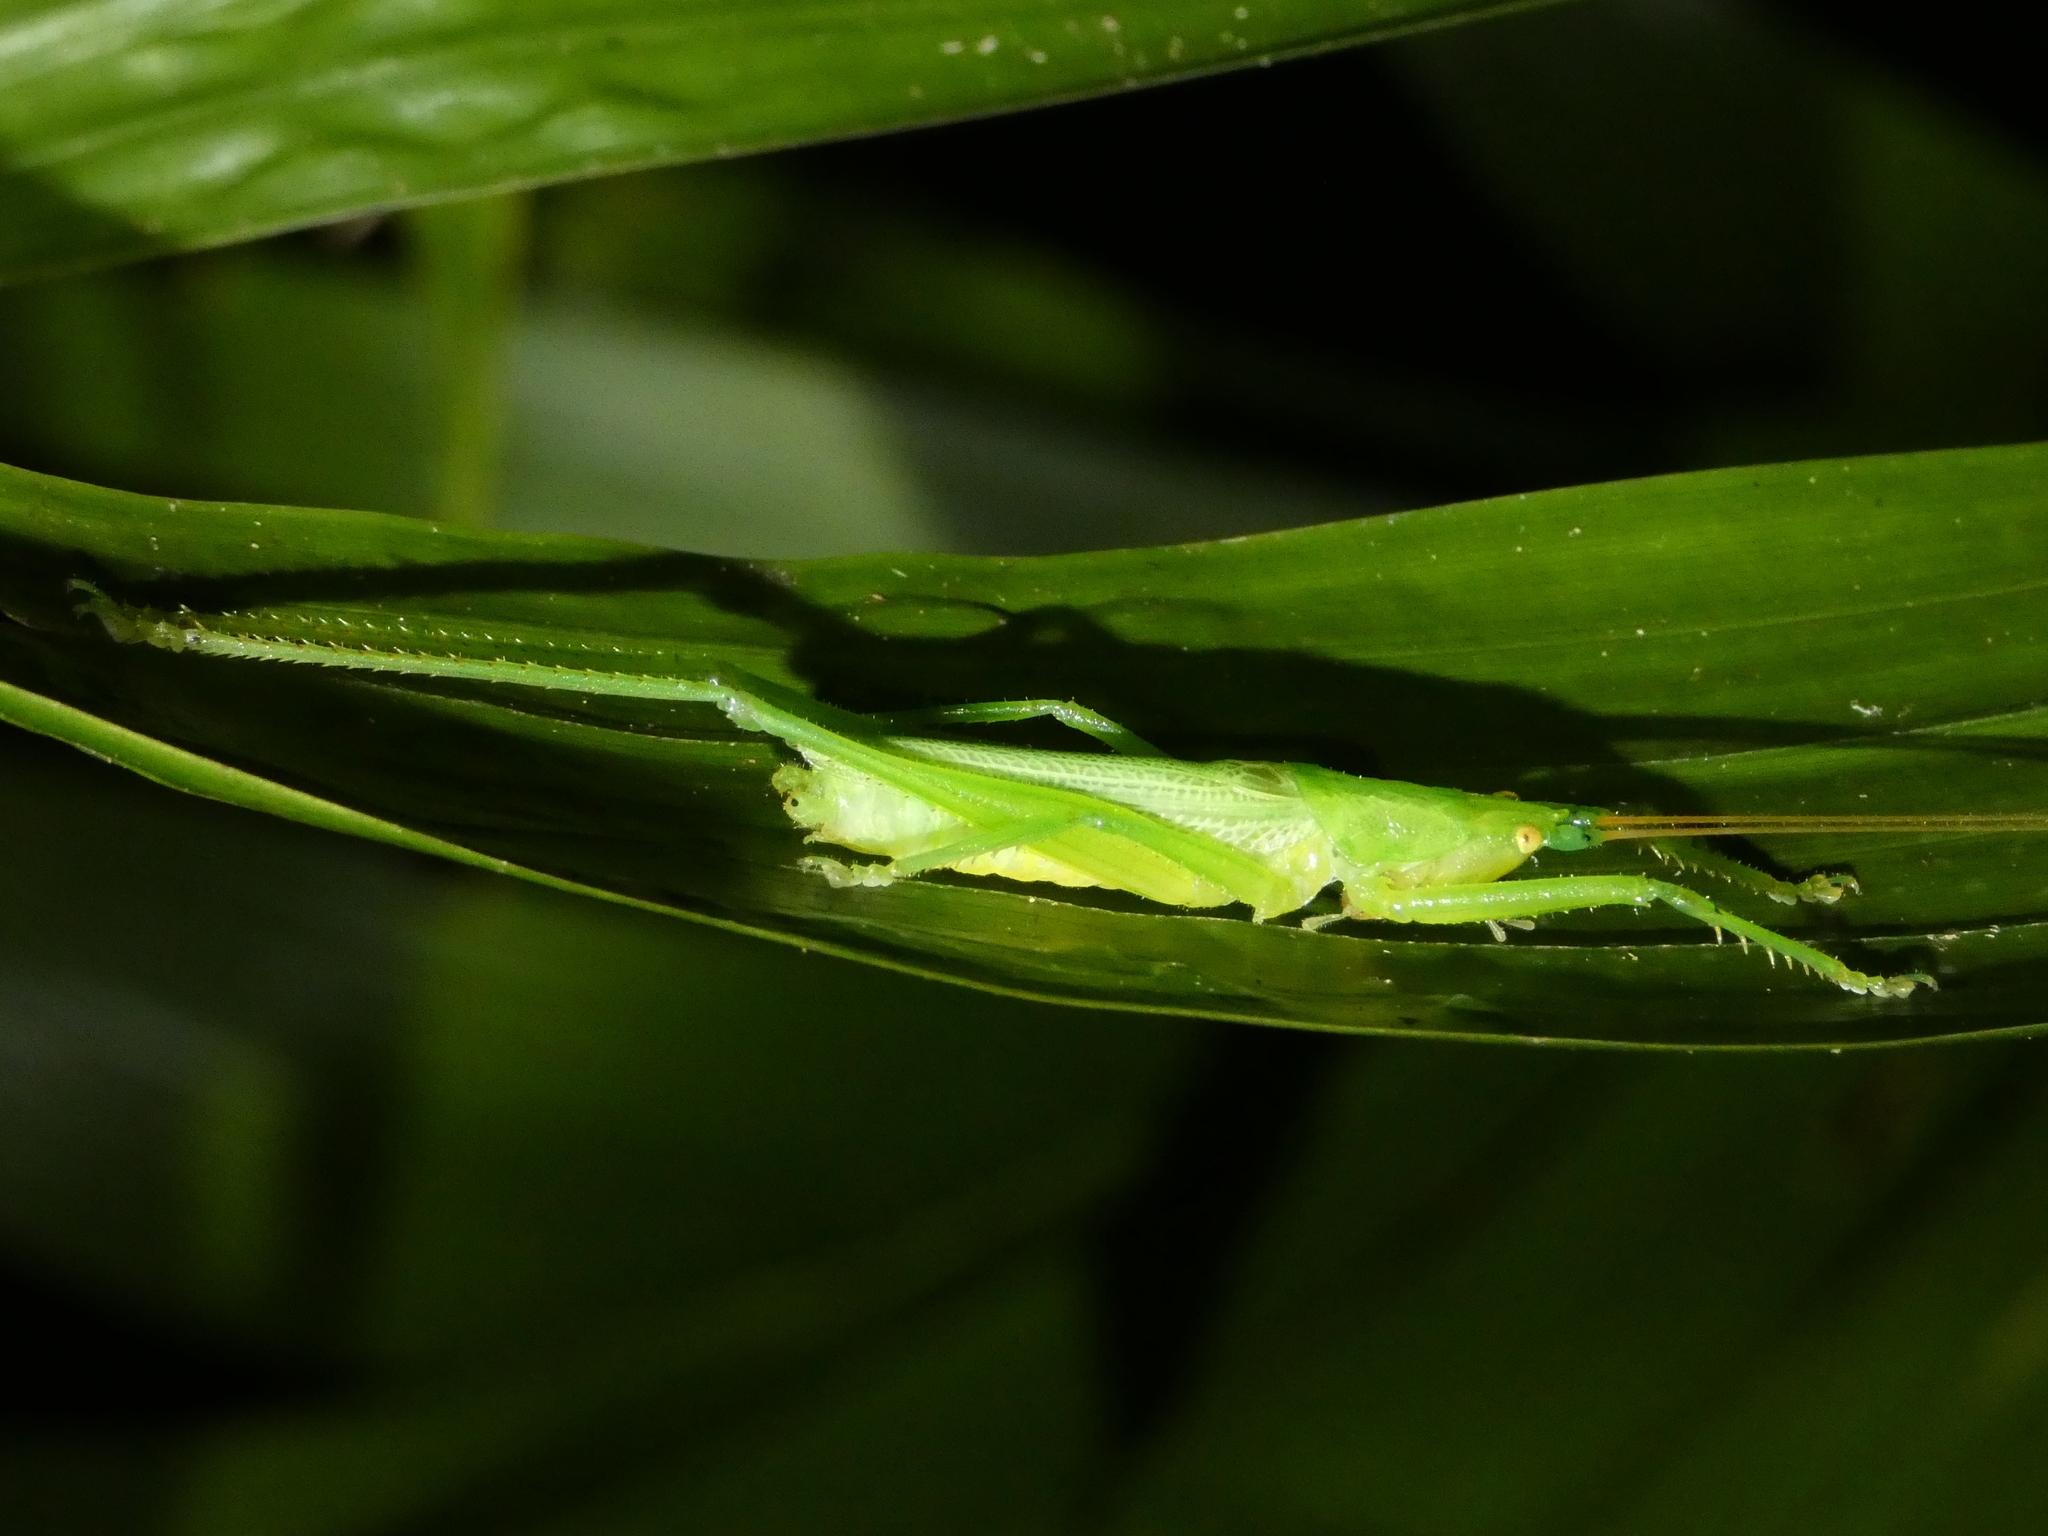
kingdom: Animalia
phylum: Arthropoda
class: Insecta
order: Orthoptera
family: Tettigoniidae
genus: Greenagraecia
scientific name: Greenagraecia attenuata
